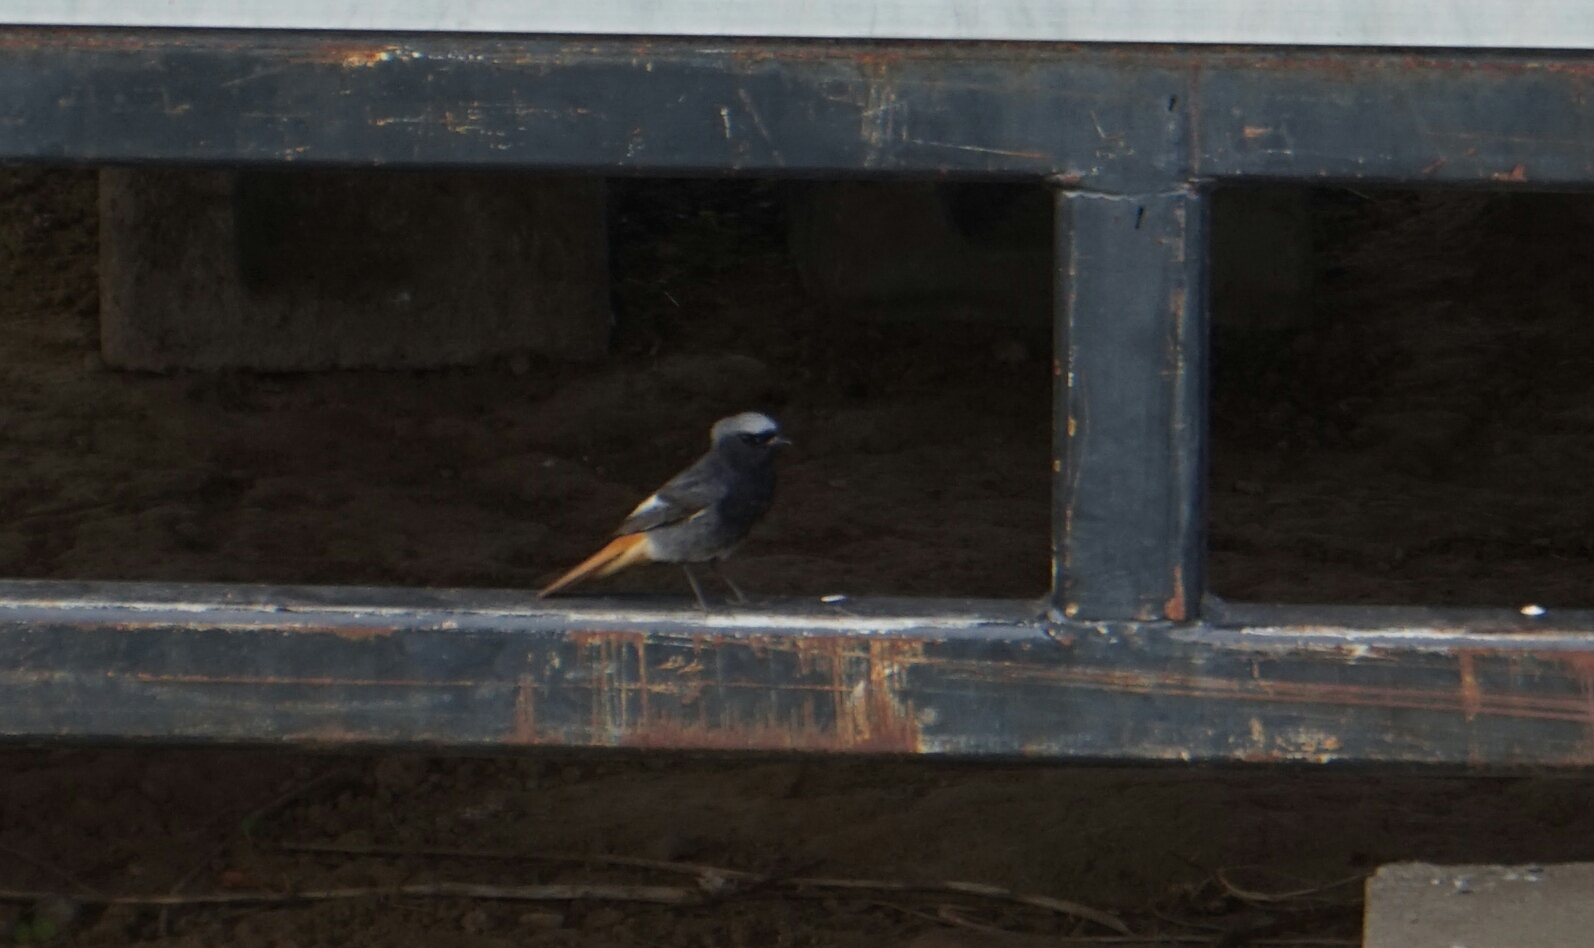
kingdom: Animalia
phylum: Chordata
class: Aves
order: Passeriformes
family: Muscicapidae
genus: Phoenicurus
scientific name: Phoenicurus ochruros
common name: Black redstart
